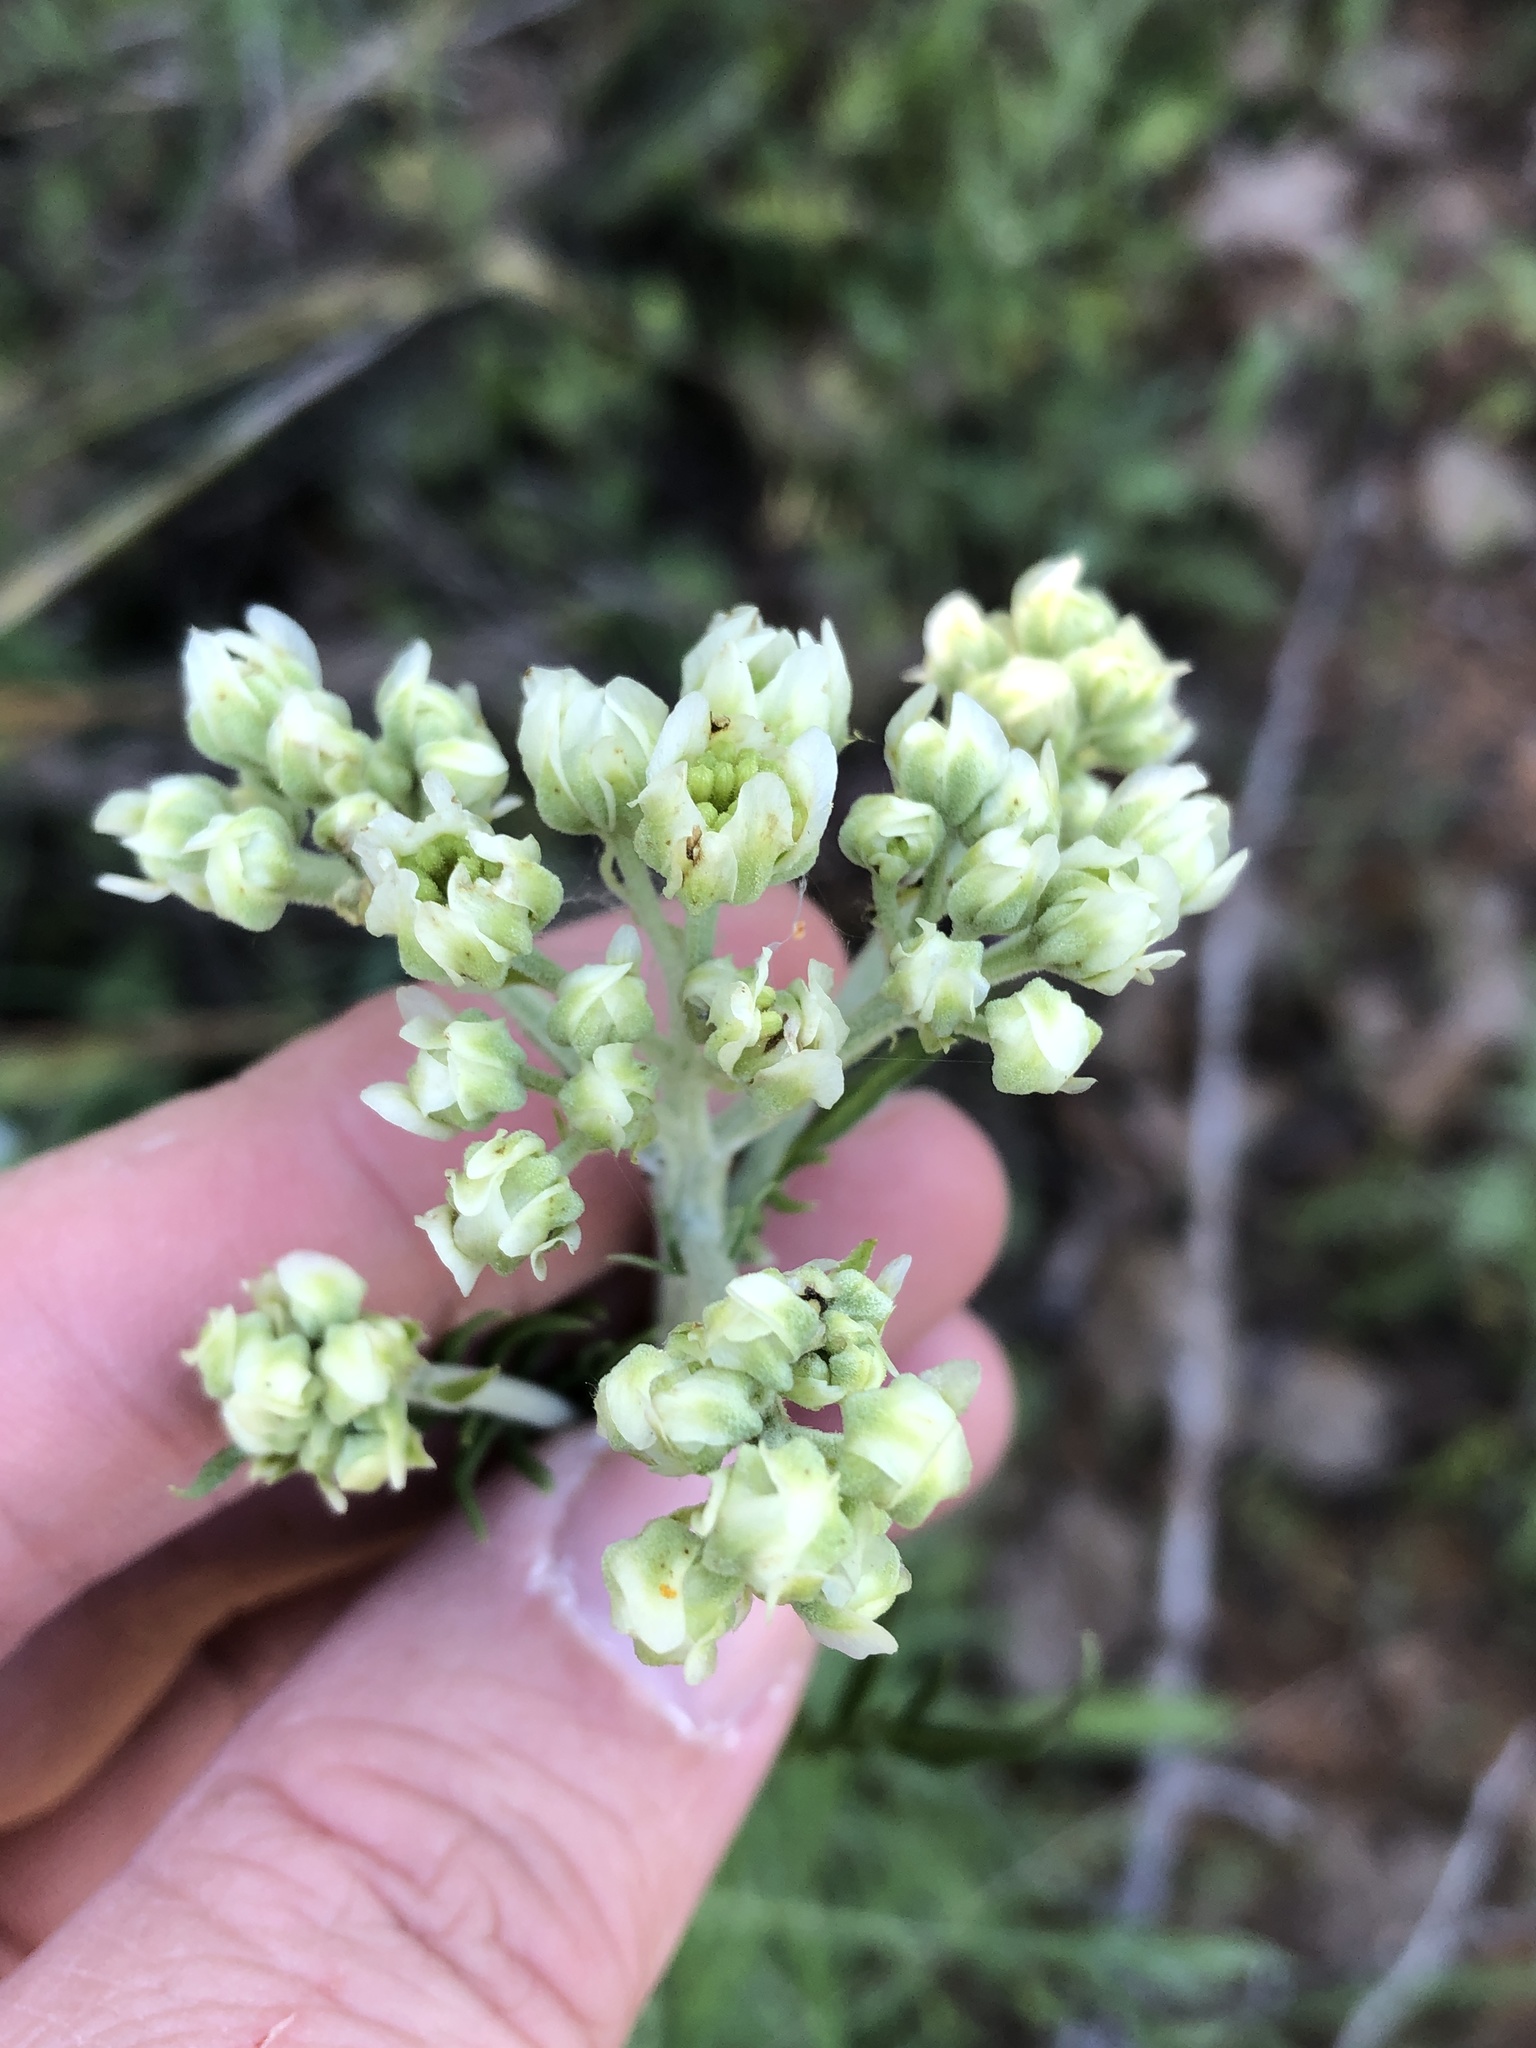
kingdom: Plantae
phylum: Tracheophyta
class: Magnoliopsida
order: Asterales
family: Asteraceae
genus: Hymenopappus
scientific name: Hymenopappus scabiosaeus
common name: Carolina woollywhite
